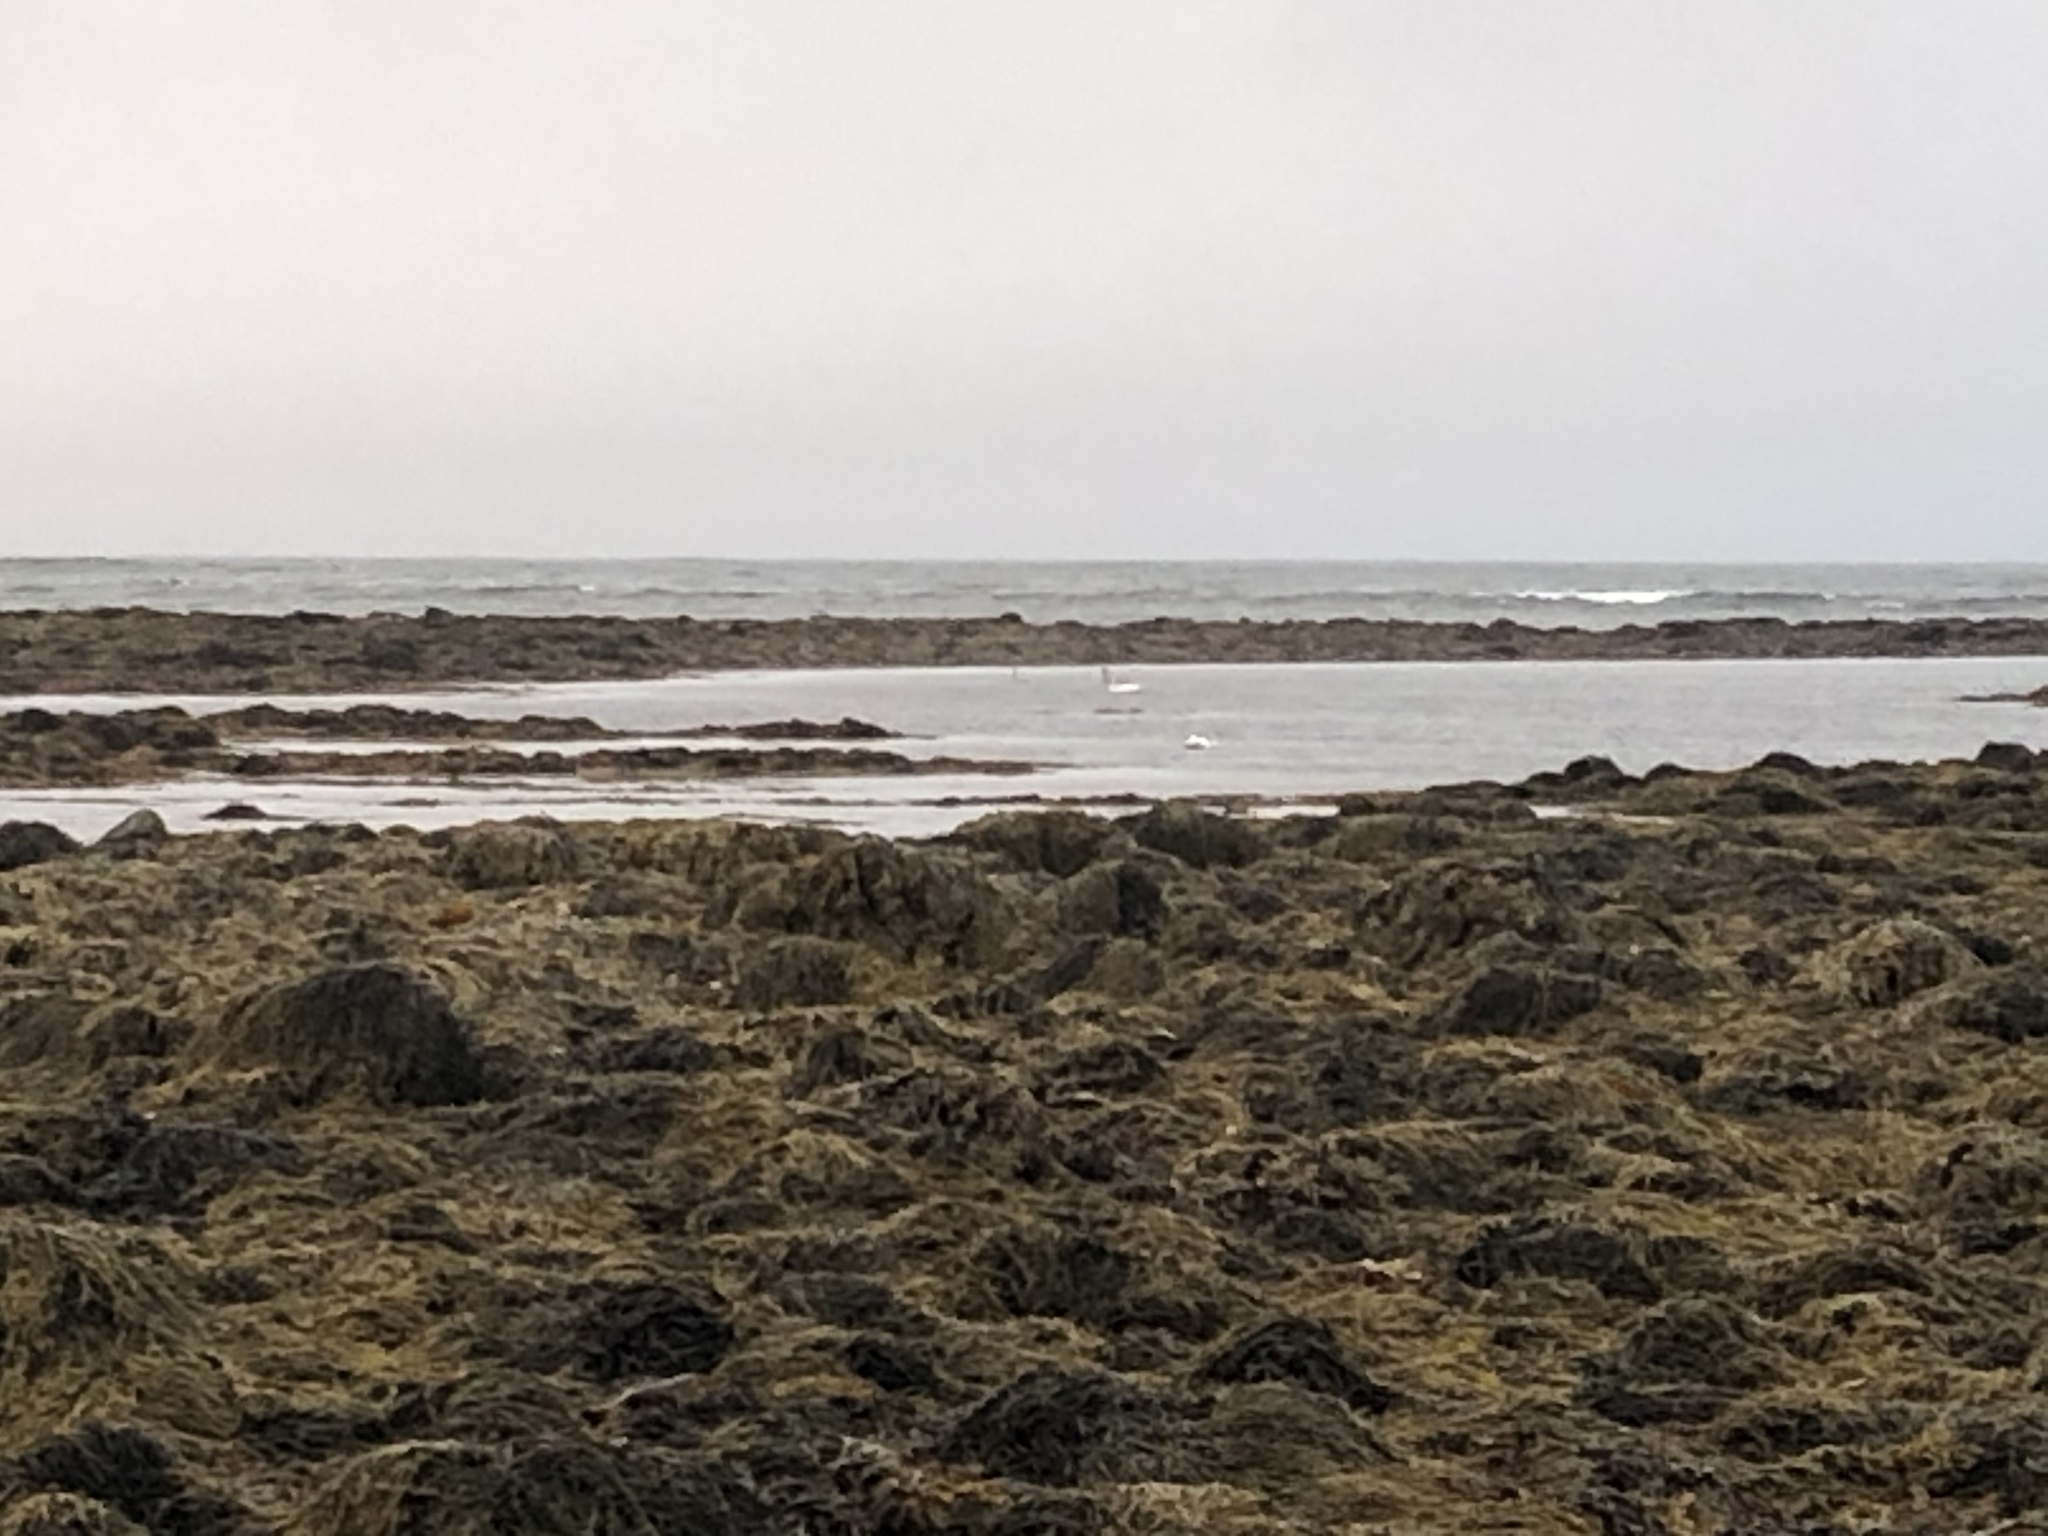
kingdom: Animalia
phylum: Chordata
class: Aves
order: Anseriformes
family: Anatidae
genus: Cygnus
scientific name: Cygnus cygnus
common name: Whooper swan
